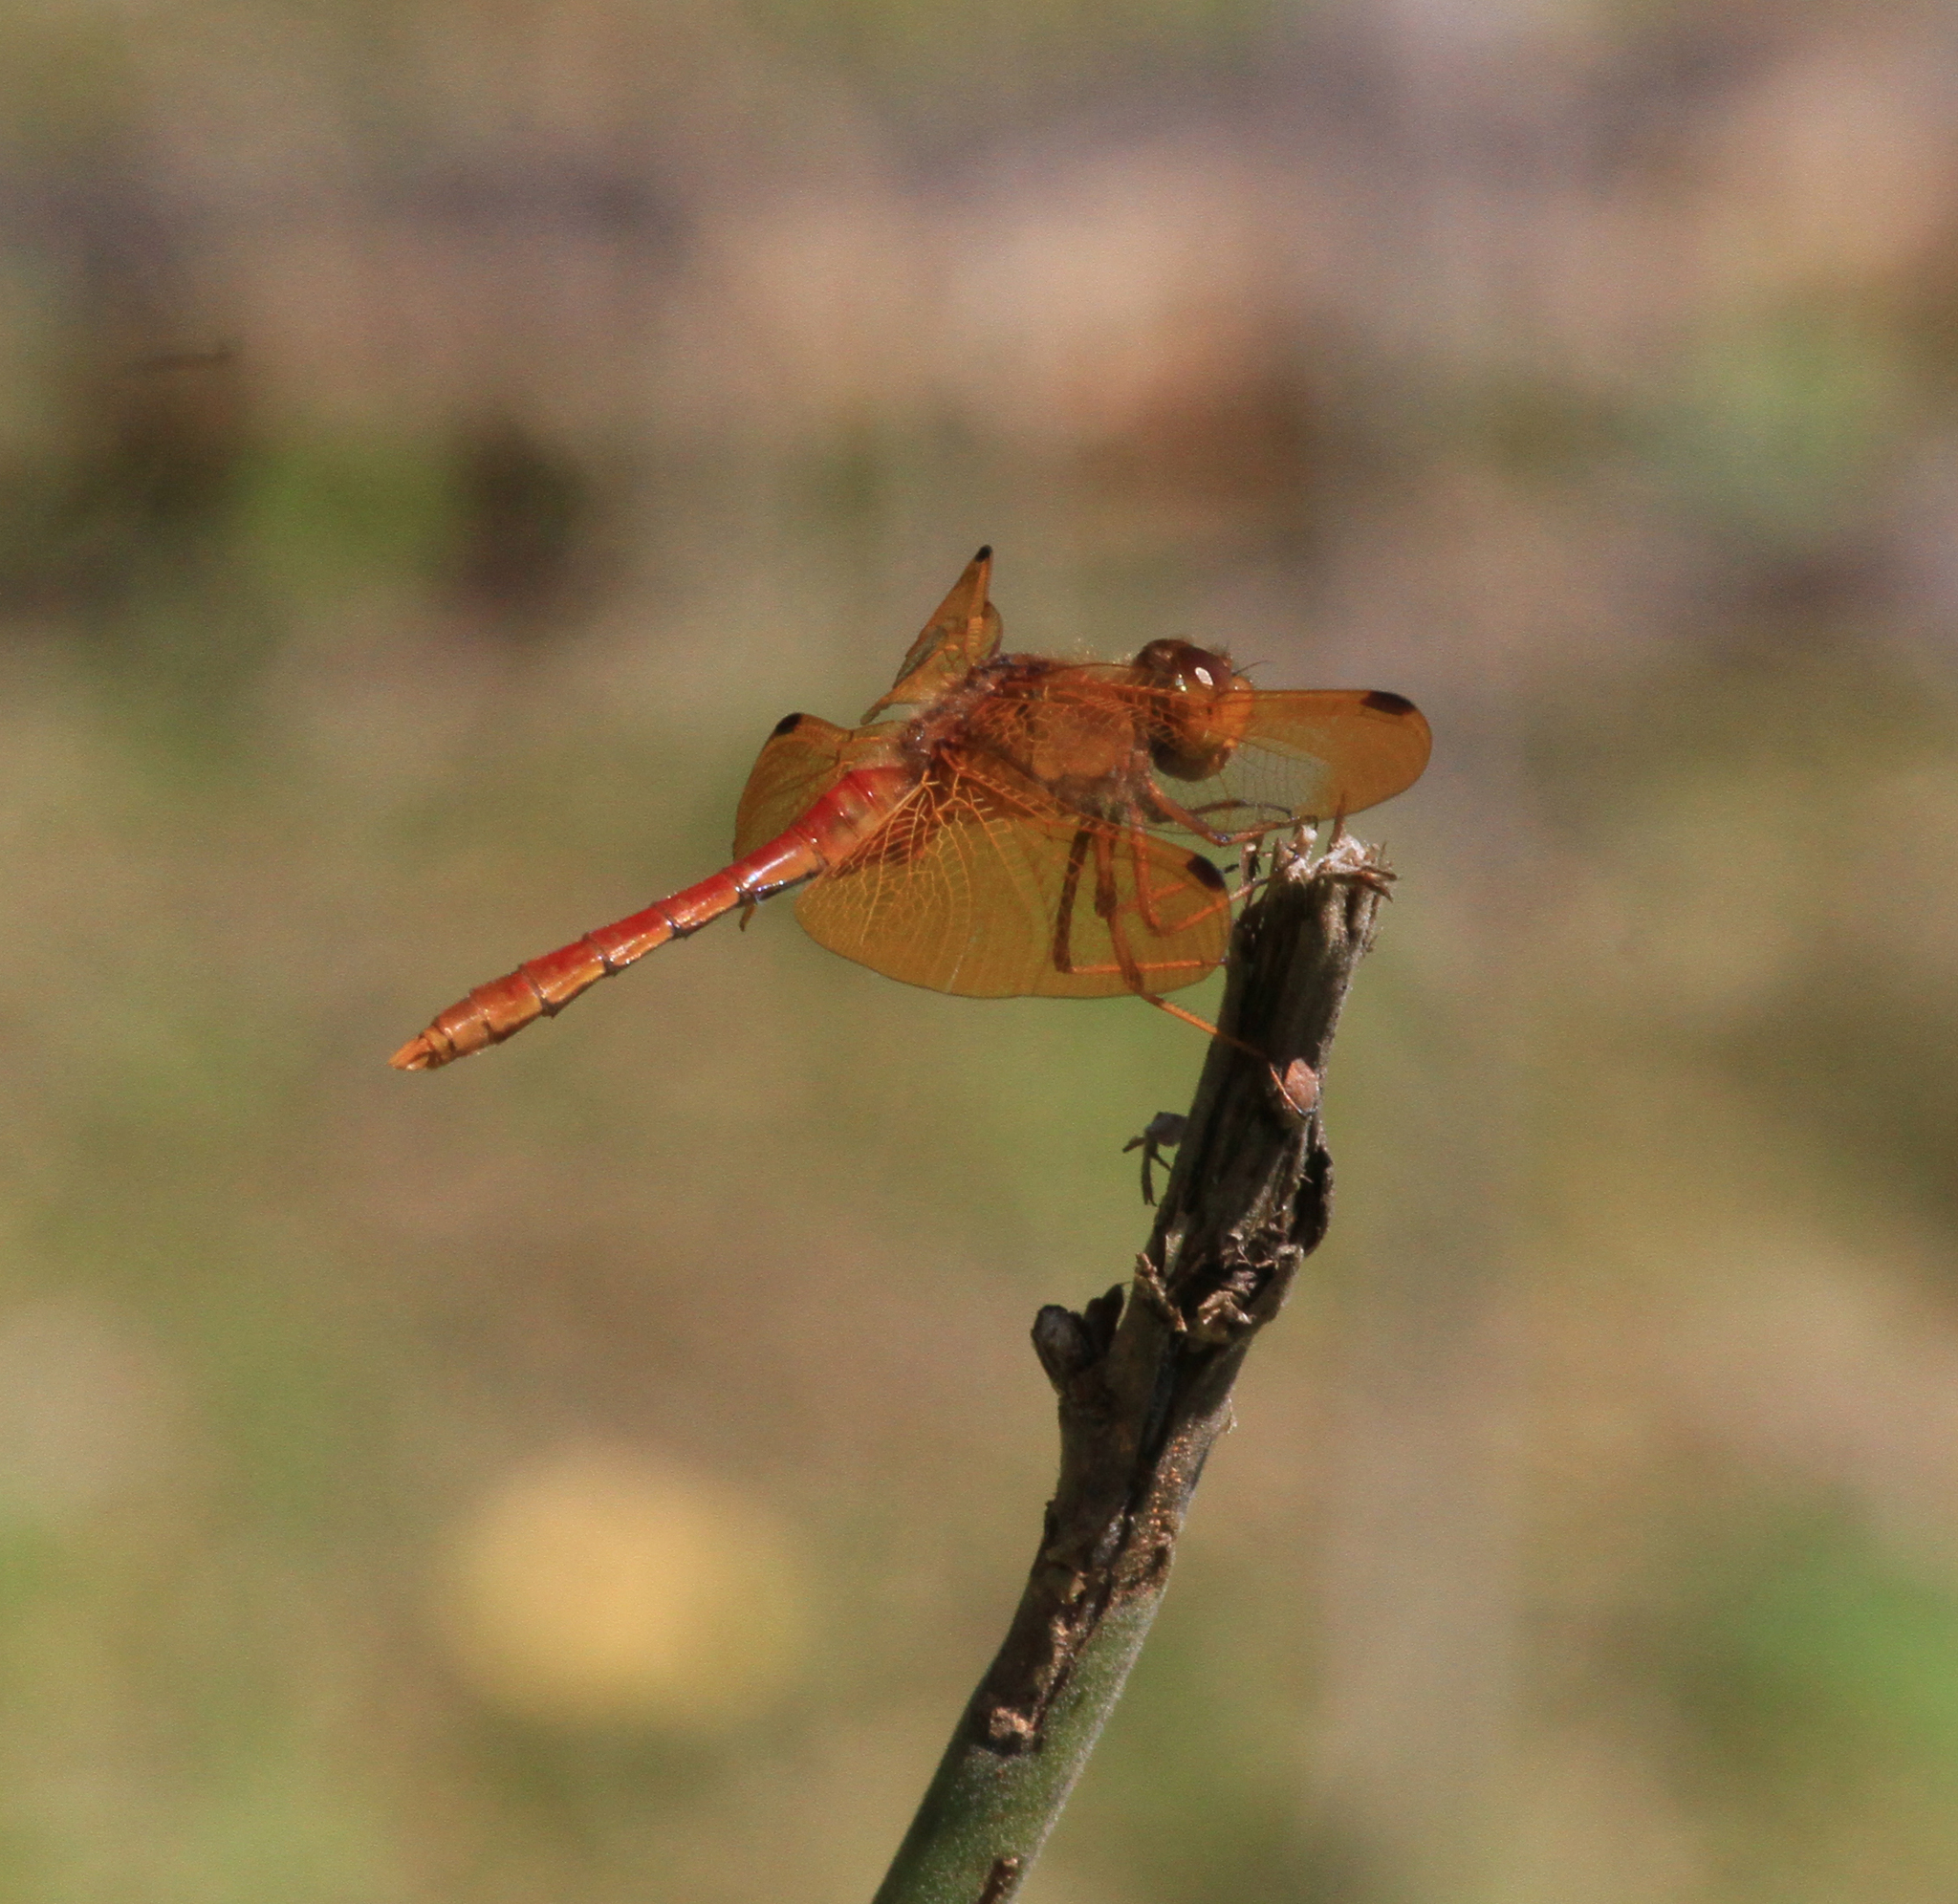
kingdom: Animalia
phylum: Arthropoda
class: Insecta
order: Odonata
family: Libellulidae
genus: Sympetrum
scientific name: Sympetrum croceolum
